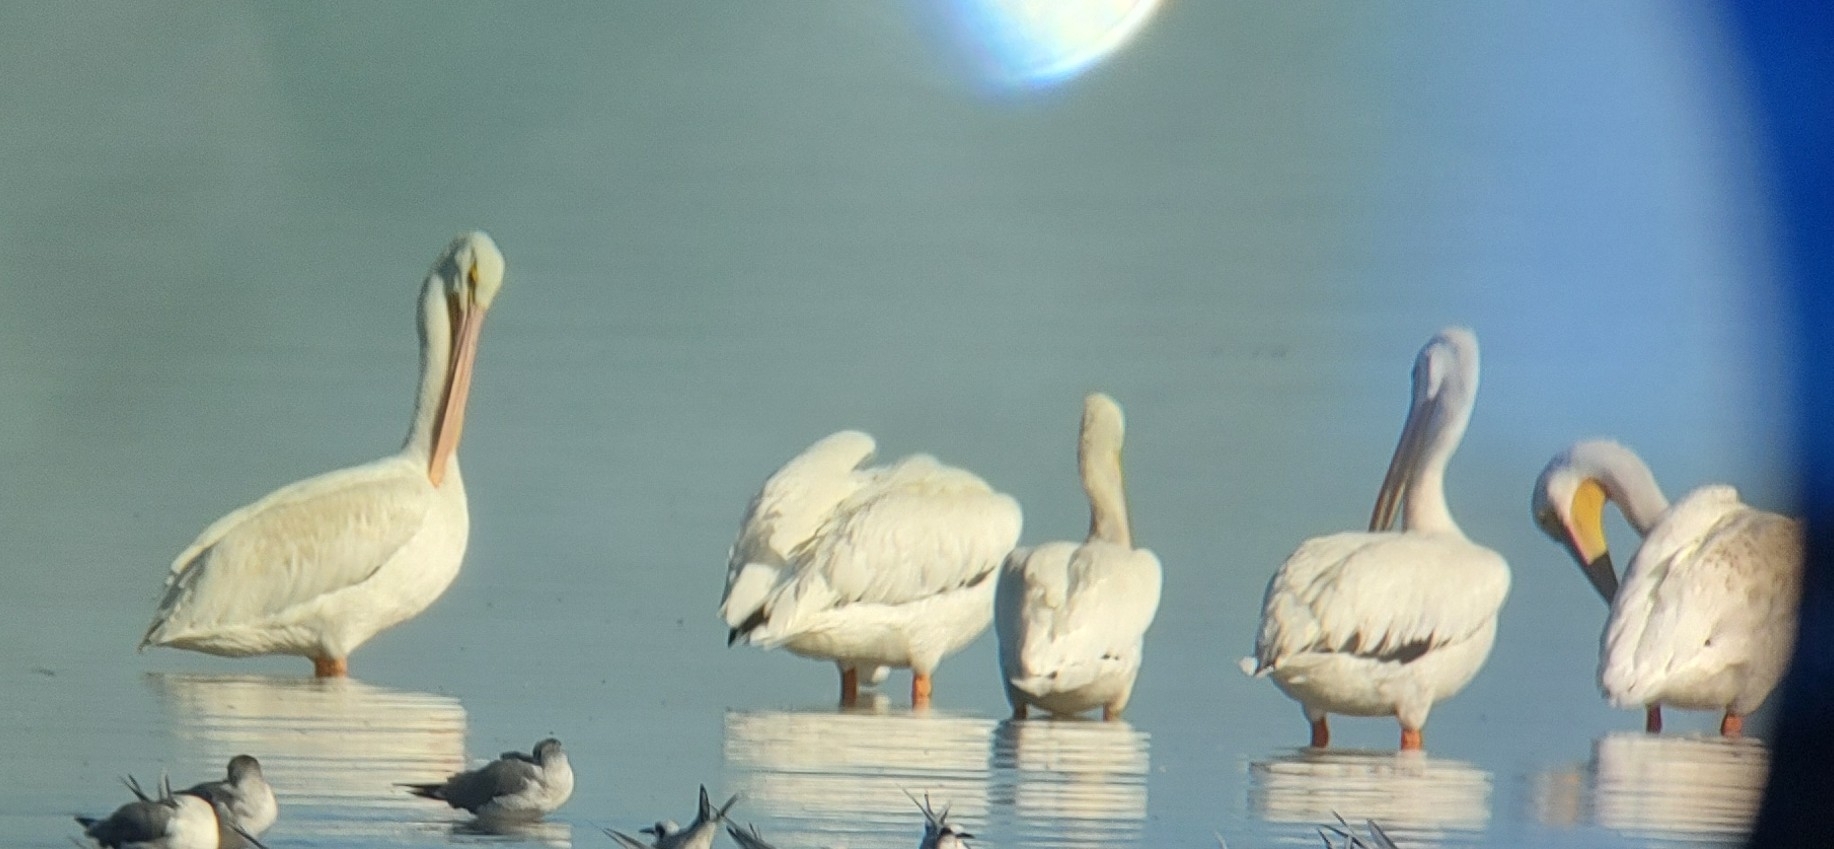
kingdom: Animalia
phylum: Chordata
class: Aves
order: Pelecaniformes
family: Pelecanidae
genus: Pelecanus
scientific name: Pelecanus erythrorhynchos
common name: American white pelican
